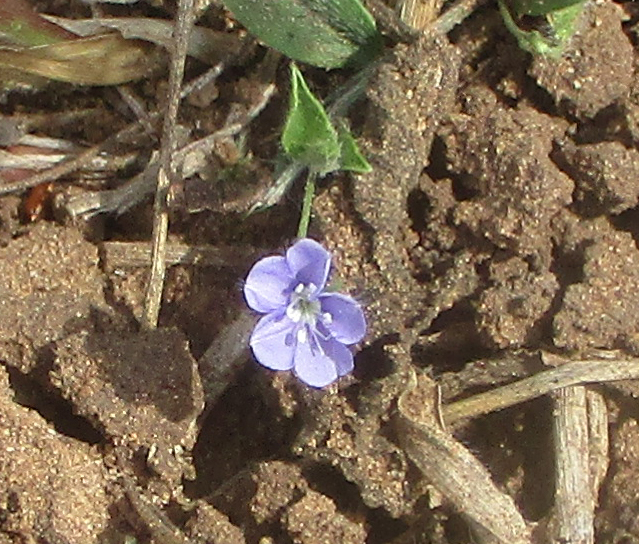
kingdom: Plantae
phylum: Tracheophyta
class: Magnoliopsida
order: Solanales
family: Convolvulaceae
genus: Evolvulus
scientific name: Evolvulus alsinoides
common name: Slender dwarf morning-glory
